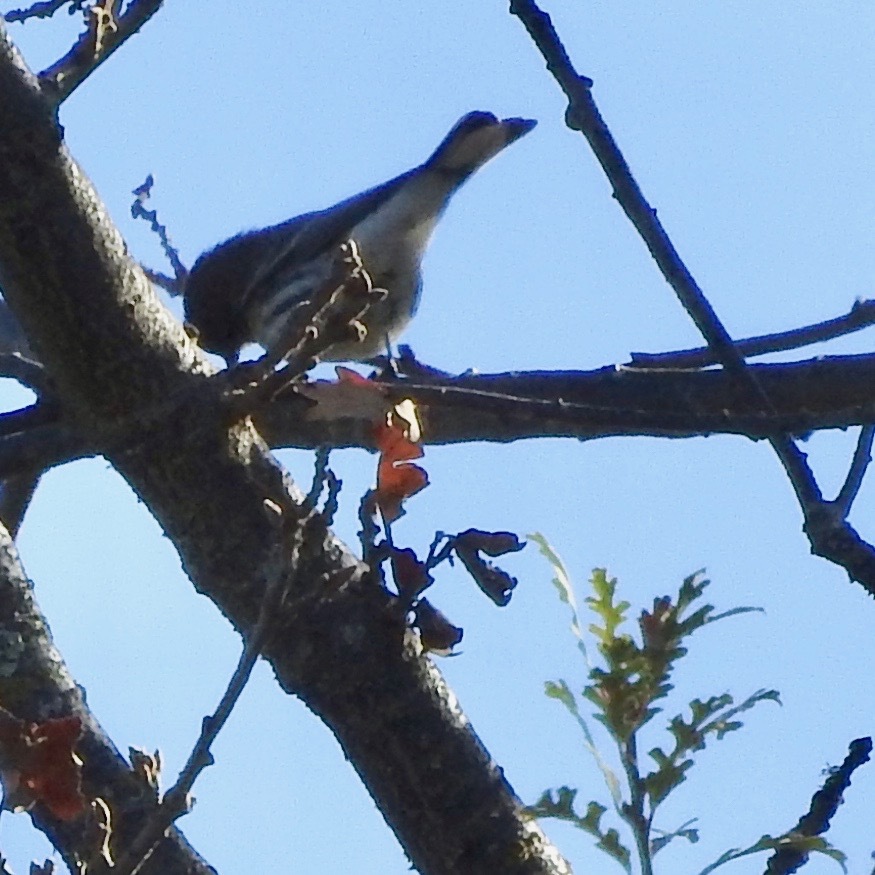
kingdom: Animalia
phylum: Chordata
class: Aves
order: Passeriformes
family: Parulidae
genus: Setophaga
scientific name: Setophaga coronata
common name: Myrtle warbler
